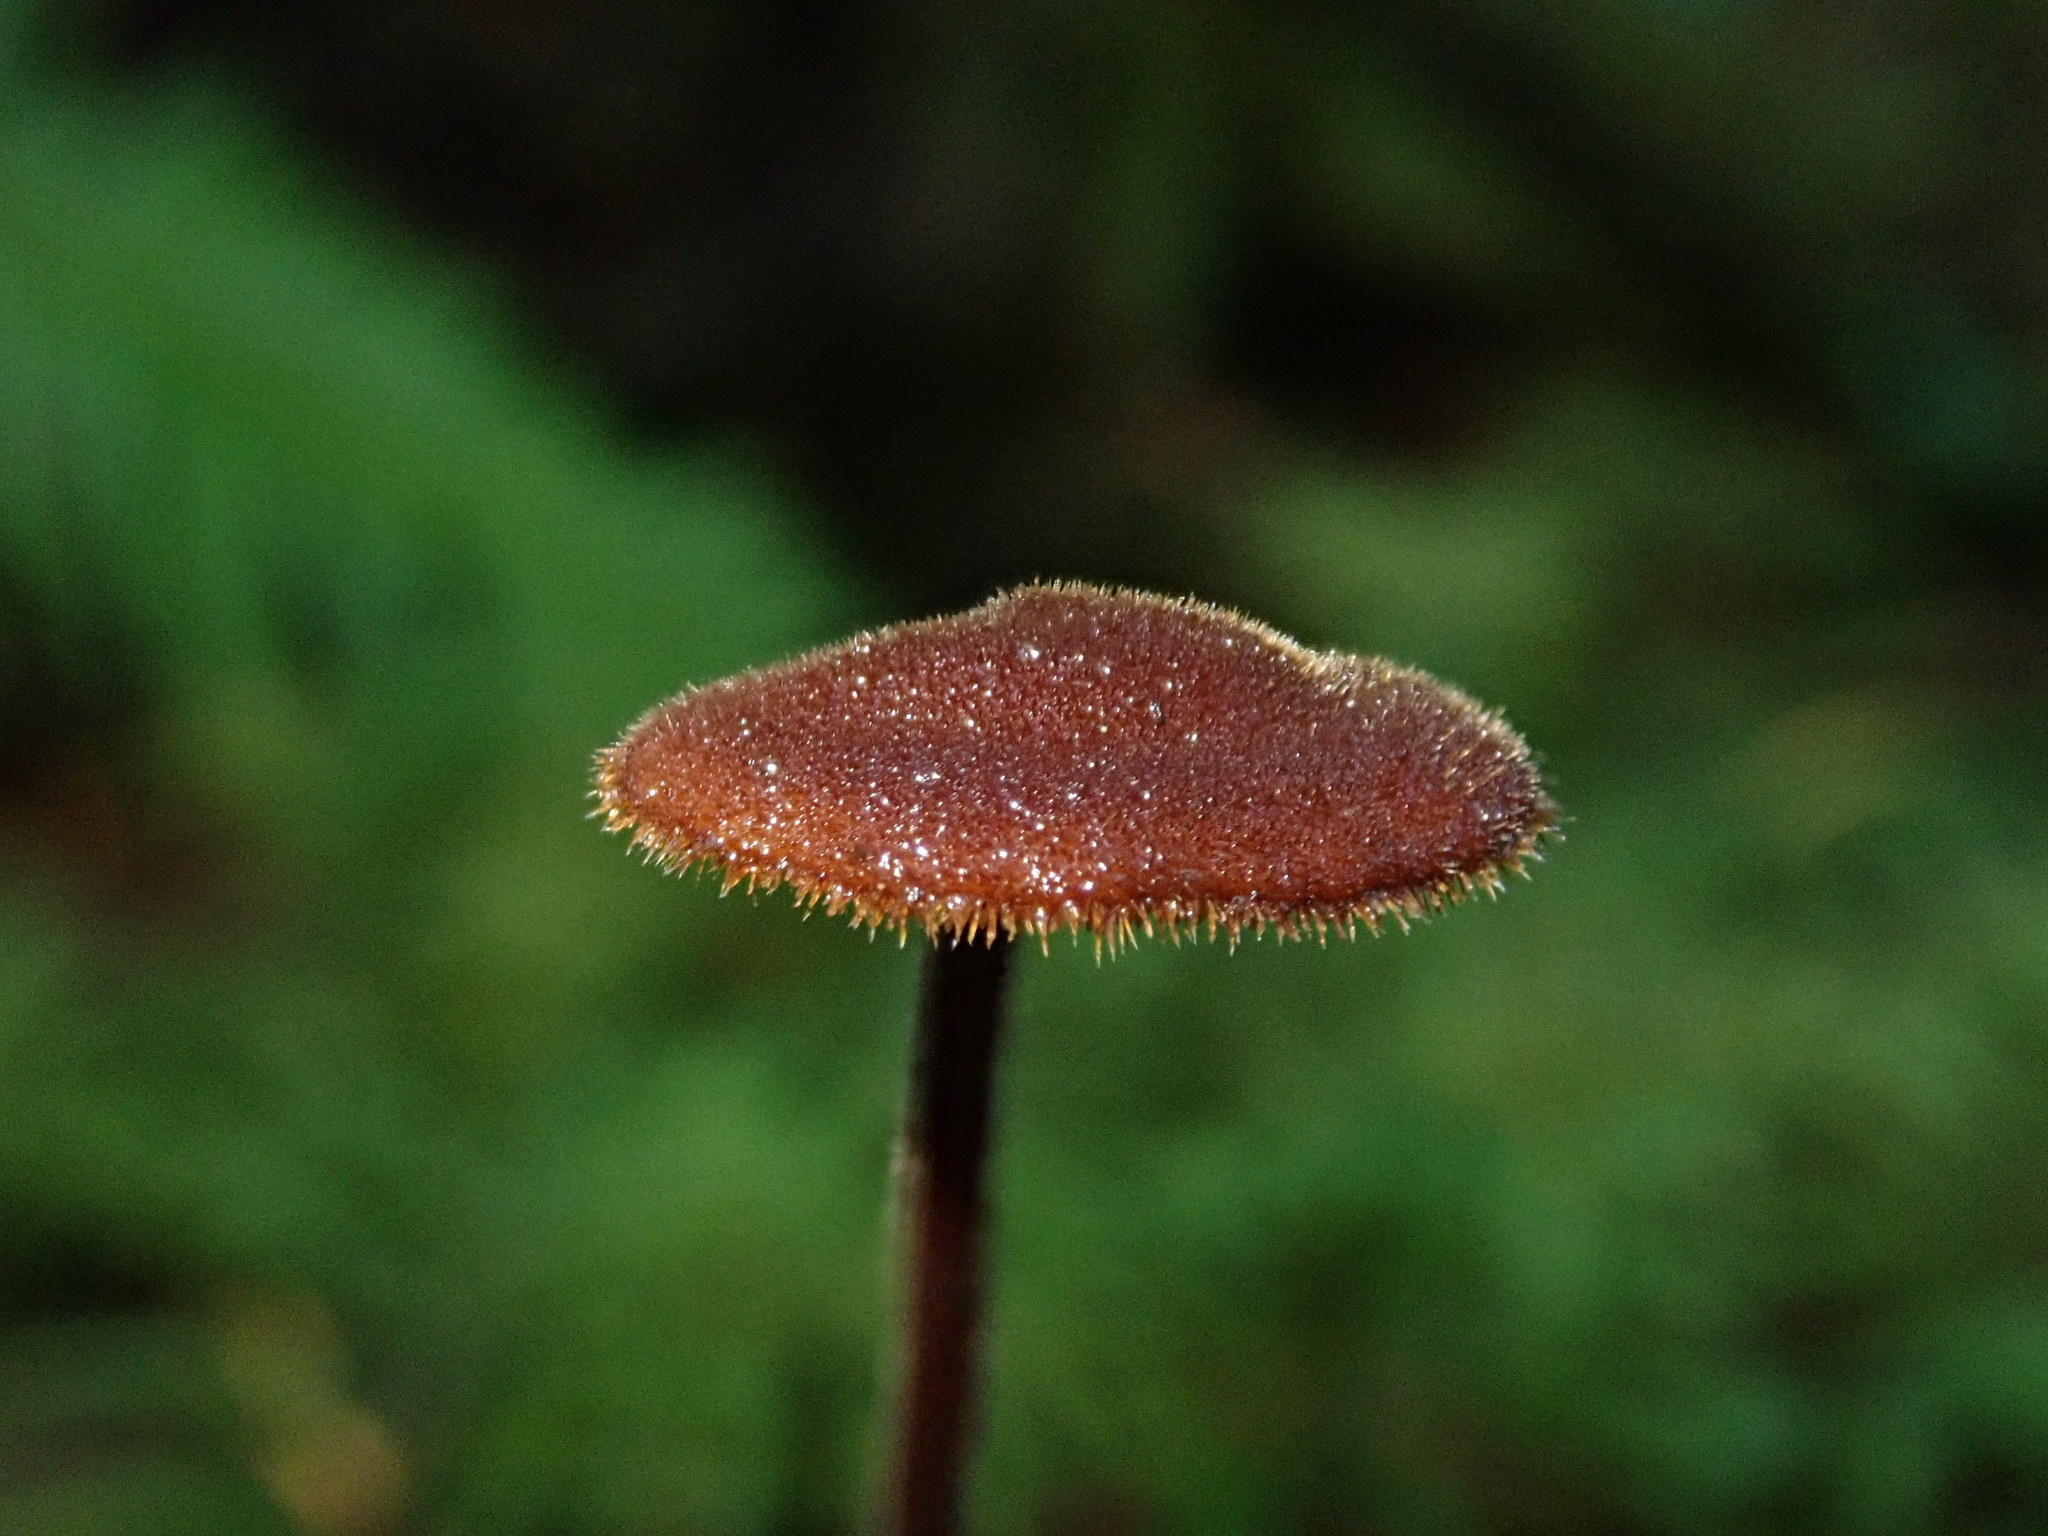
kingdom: Fungi
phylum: Basidiomycota
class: Agaricomycetes
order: Russulales
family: Auriscalpiaceae
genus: Auriscalpium
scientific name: Auriscalpium vulgare
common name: Earpick fungus
